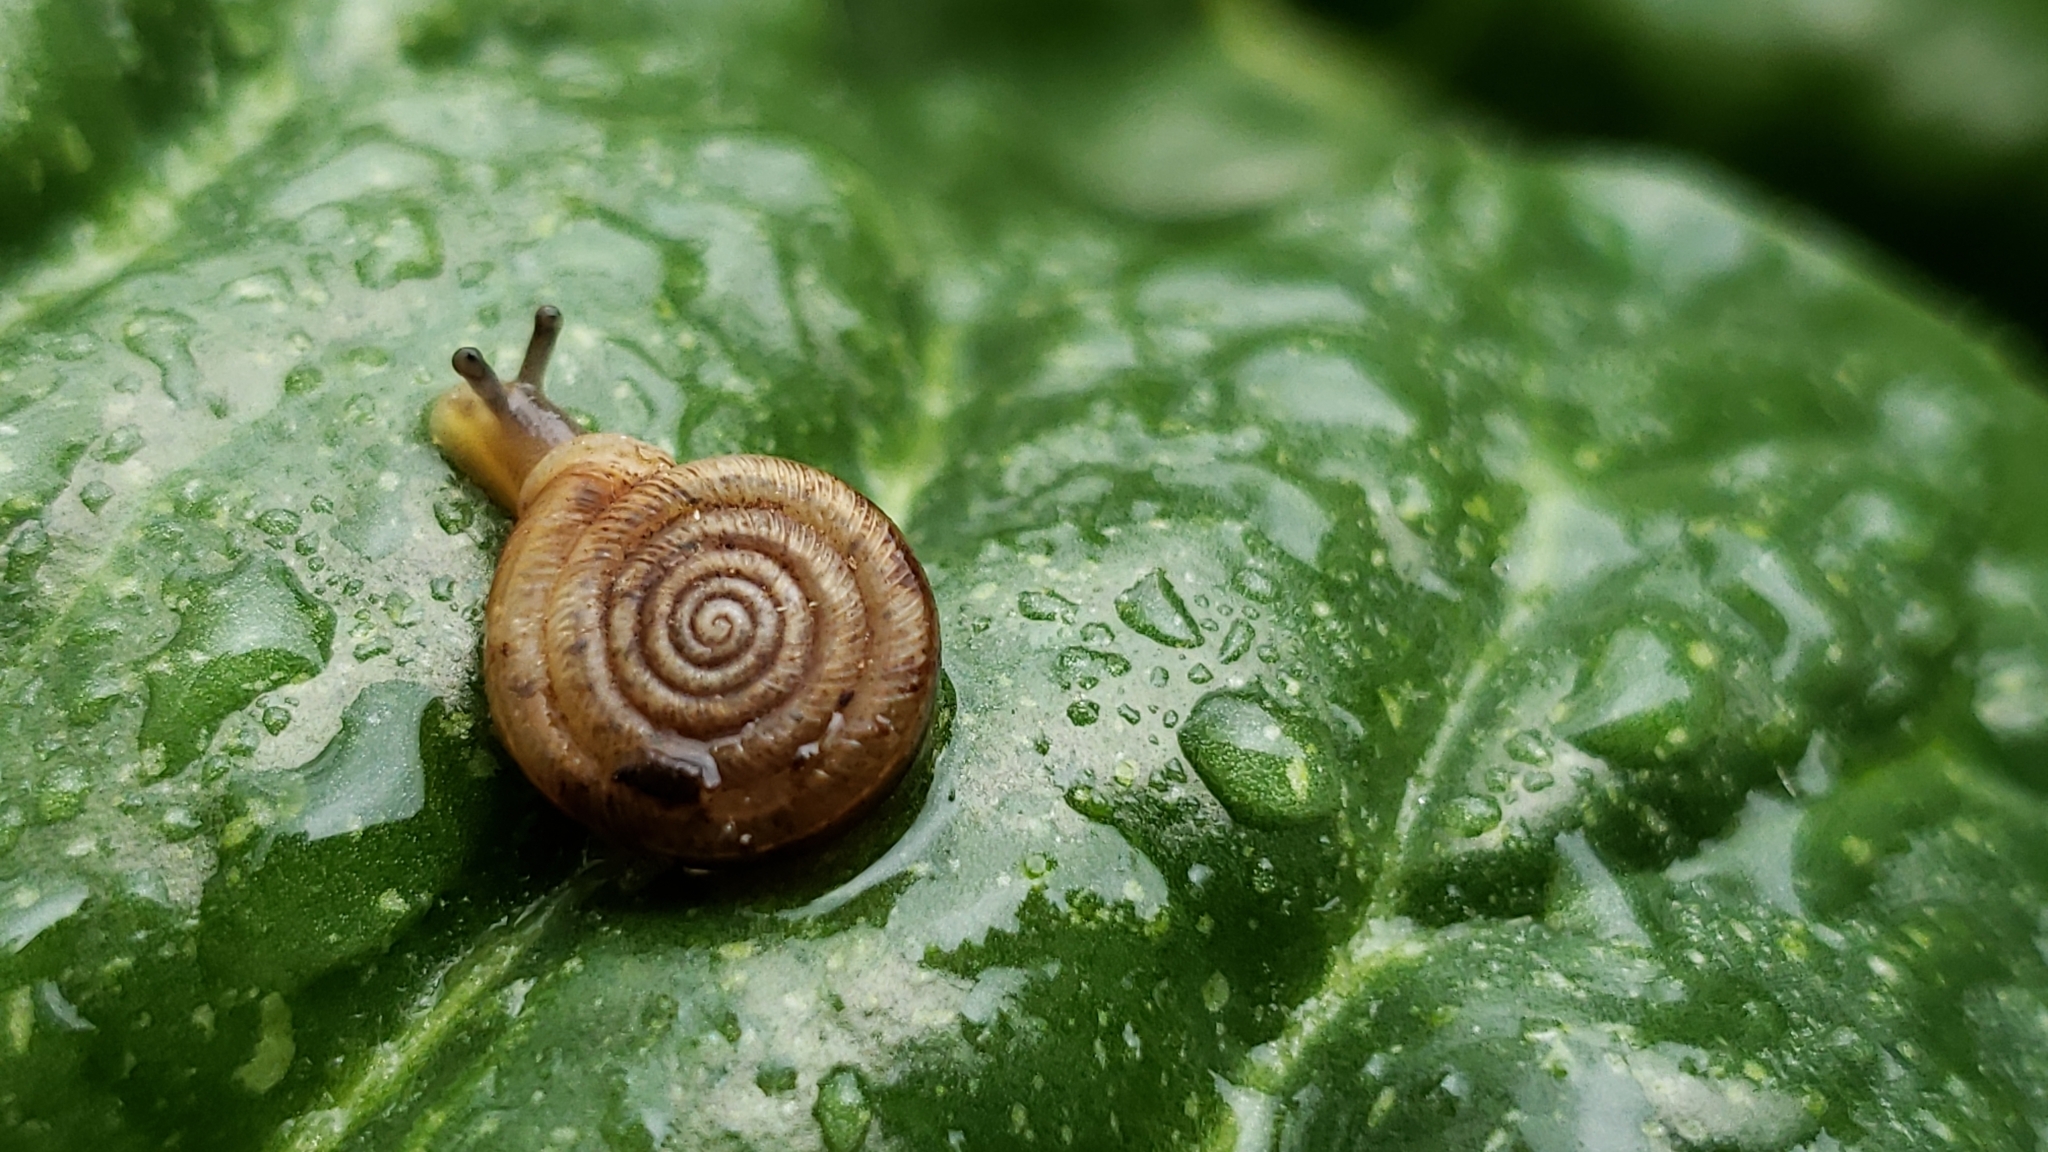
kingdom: Animalia
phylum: Mollusca
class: Gastropoda
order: Stylommatophora
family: Polygyridae
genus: Polygyra
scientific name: Polygyra cereolus
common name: Southern flatcone snail
